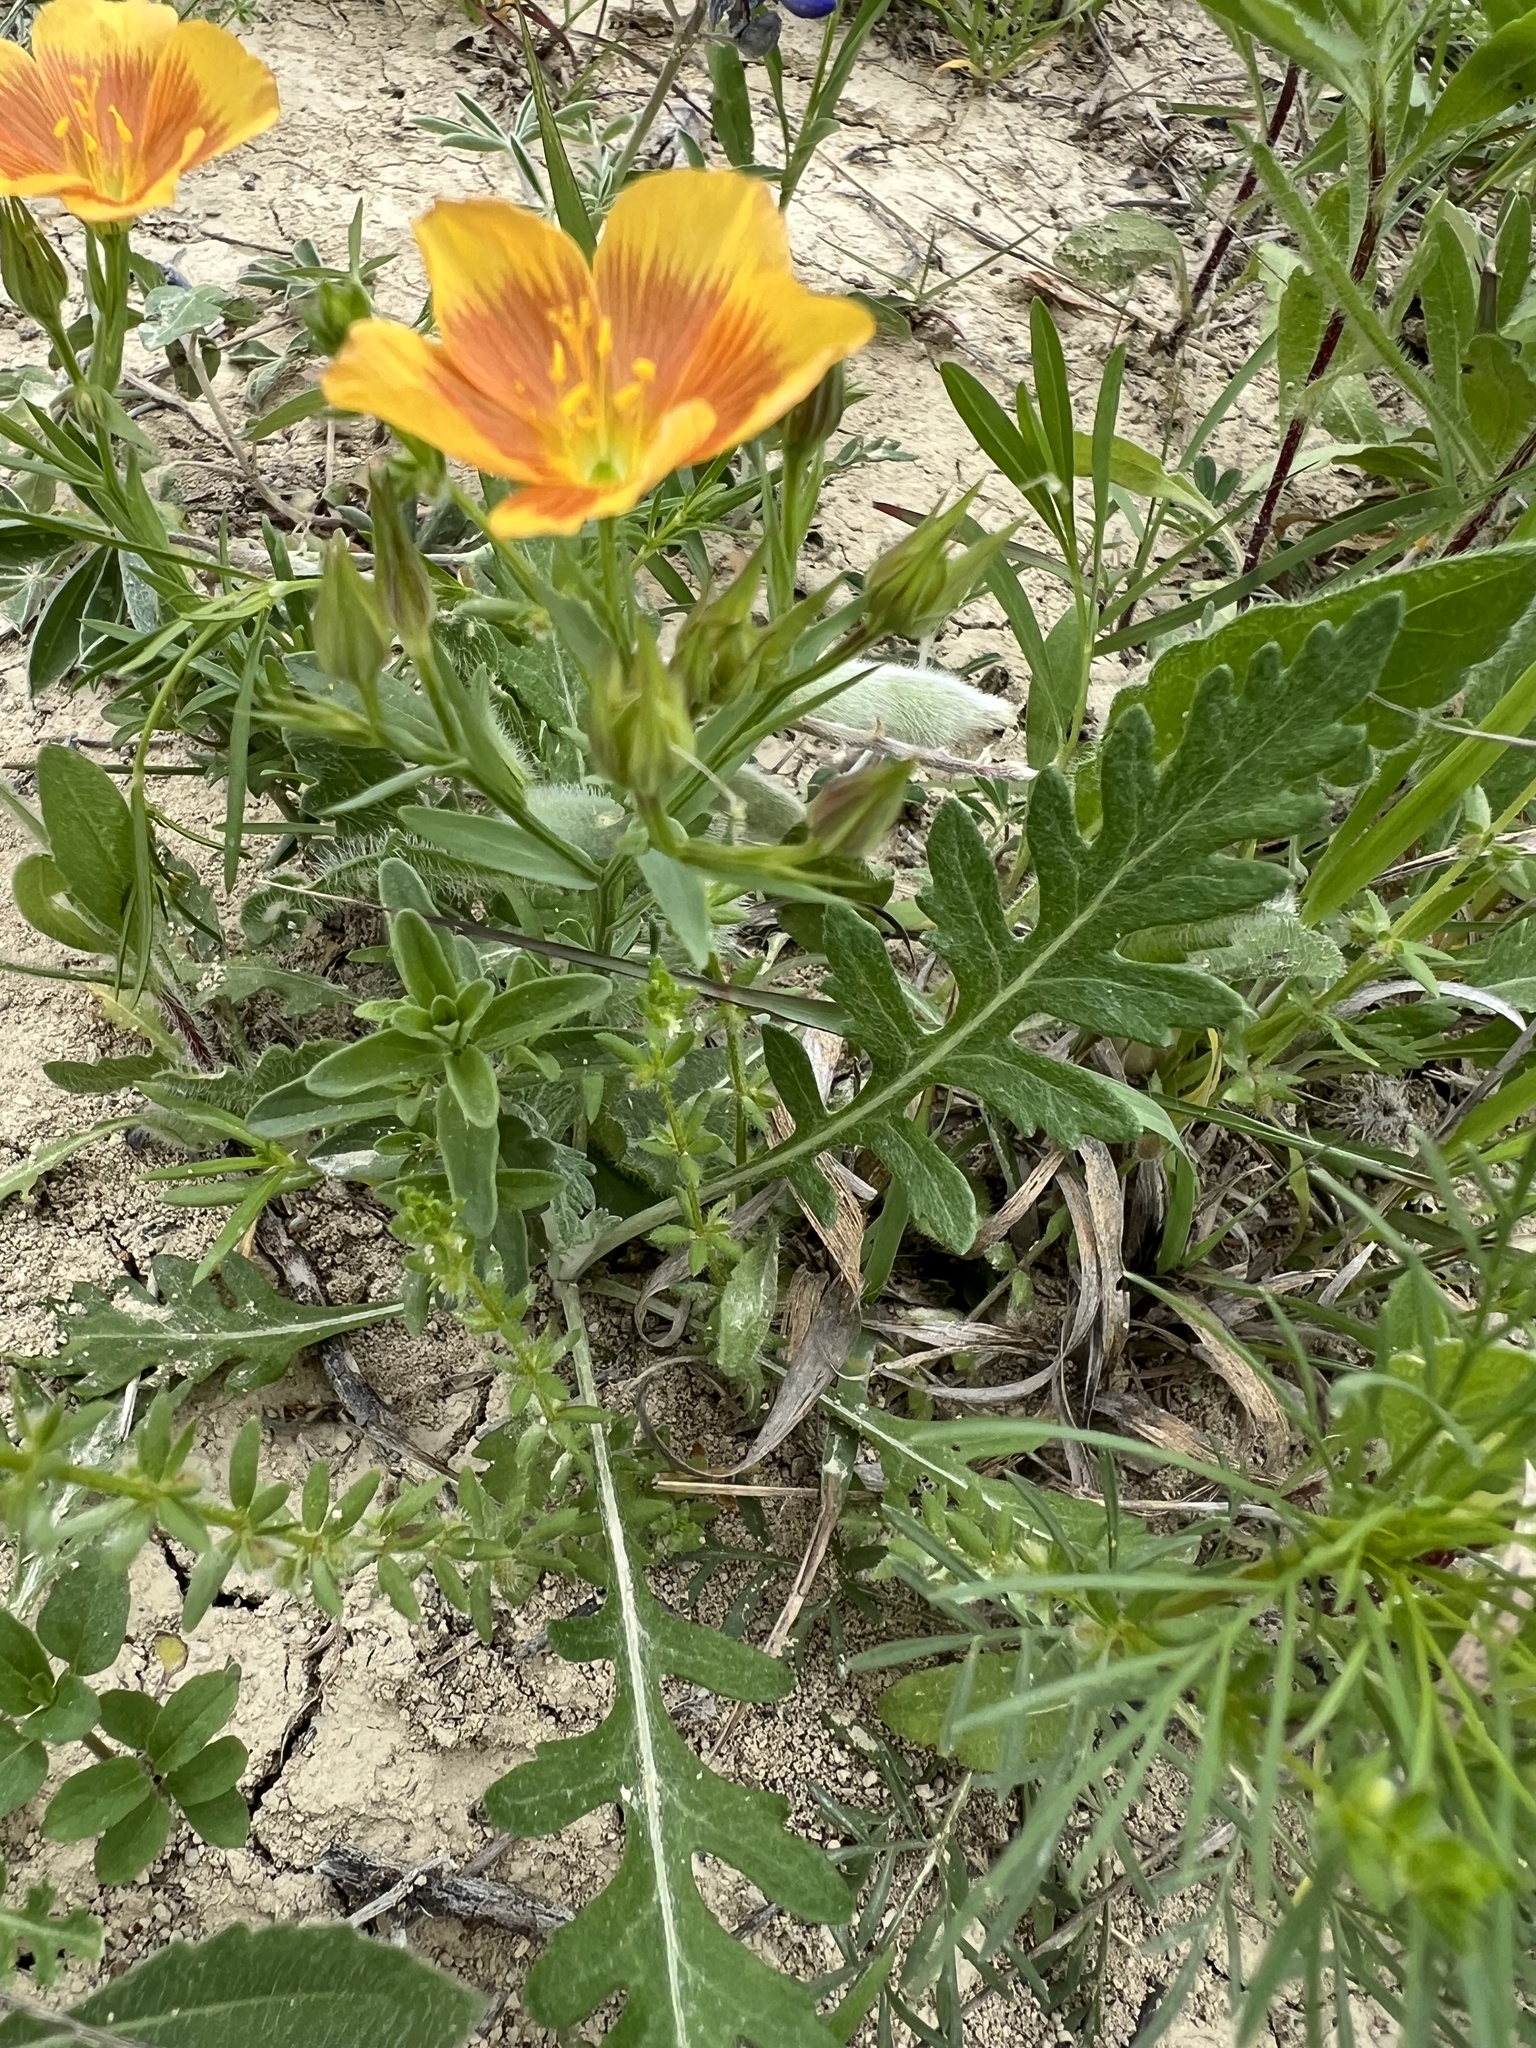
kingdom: Plantae
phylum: Tracheophyta
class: Magnoliopsida
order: Malpighiales
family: Linaceae
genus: Linum
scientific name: Linum rigidum
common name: Stiff-stem flax
